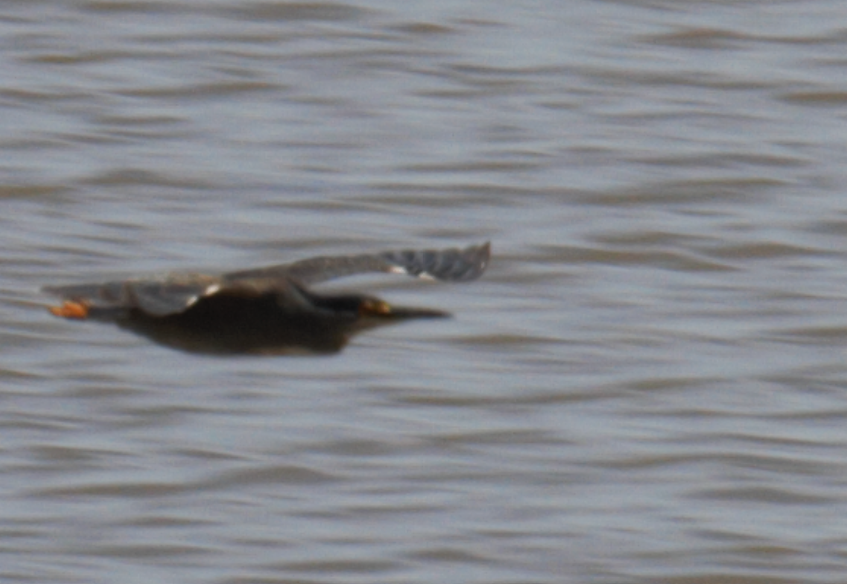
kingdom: Animalia
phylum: Chordata
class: Aves
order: Pelecaniformes
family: Ardeidae
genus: Butorides
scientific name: Butorides striata
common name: Striated heron
